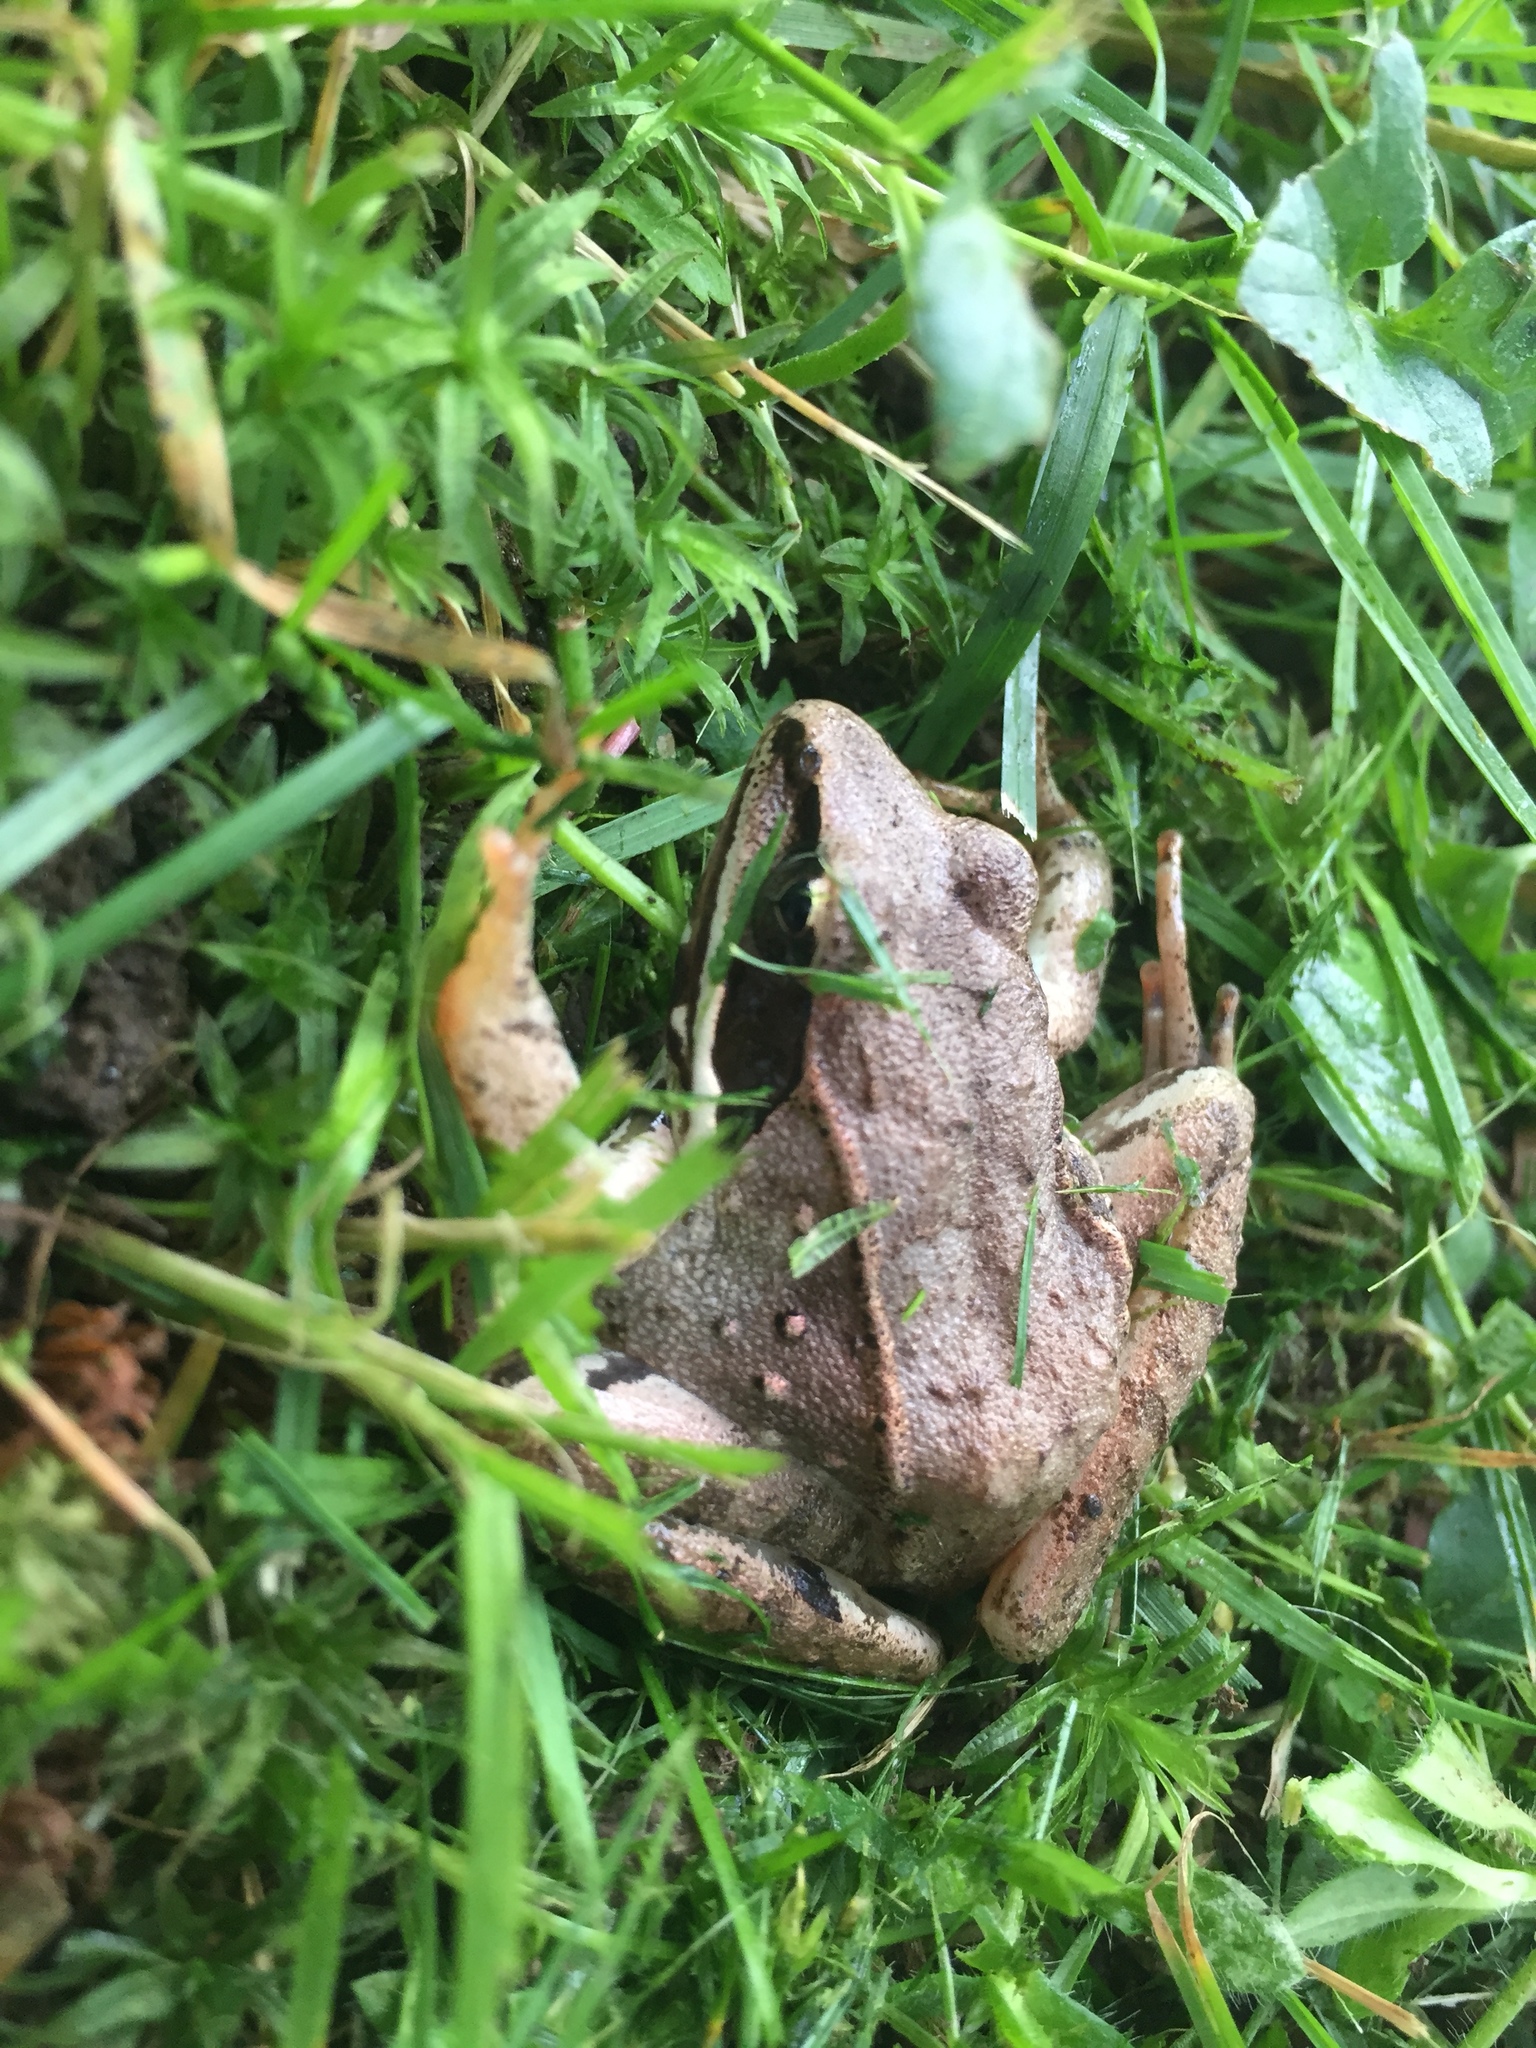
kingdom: Animalia
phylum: Chordata
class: Amphibia
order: Anura
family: Ranidae
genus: Lithobates
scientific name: Lithobates sylvaticus
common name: Wood frog
